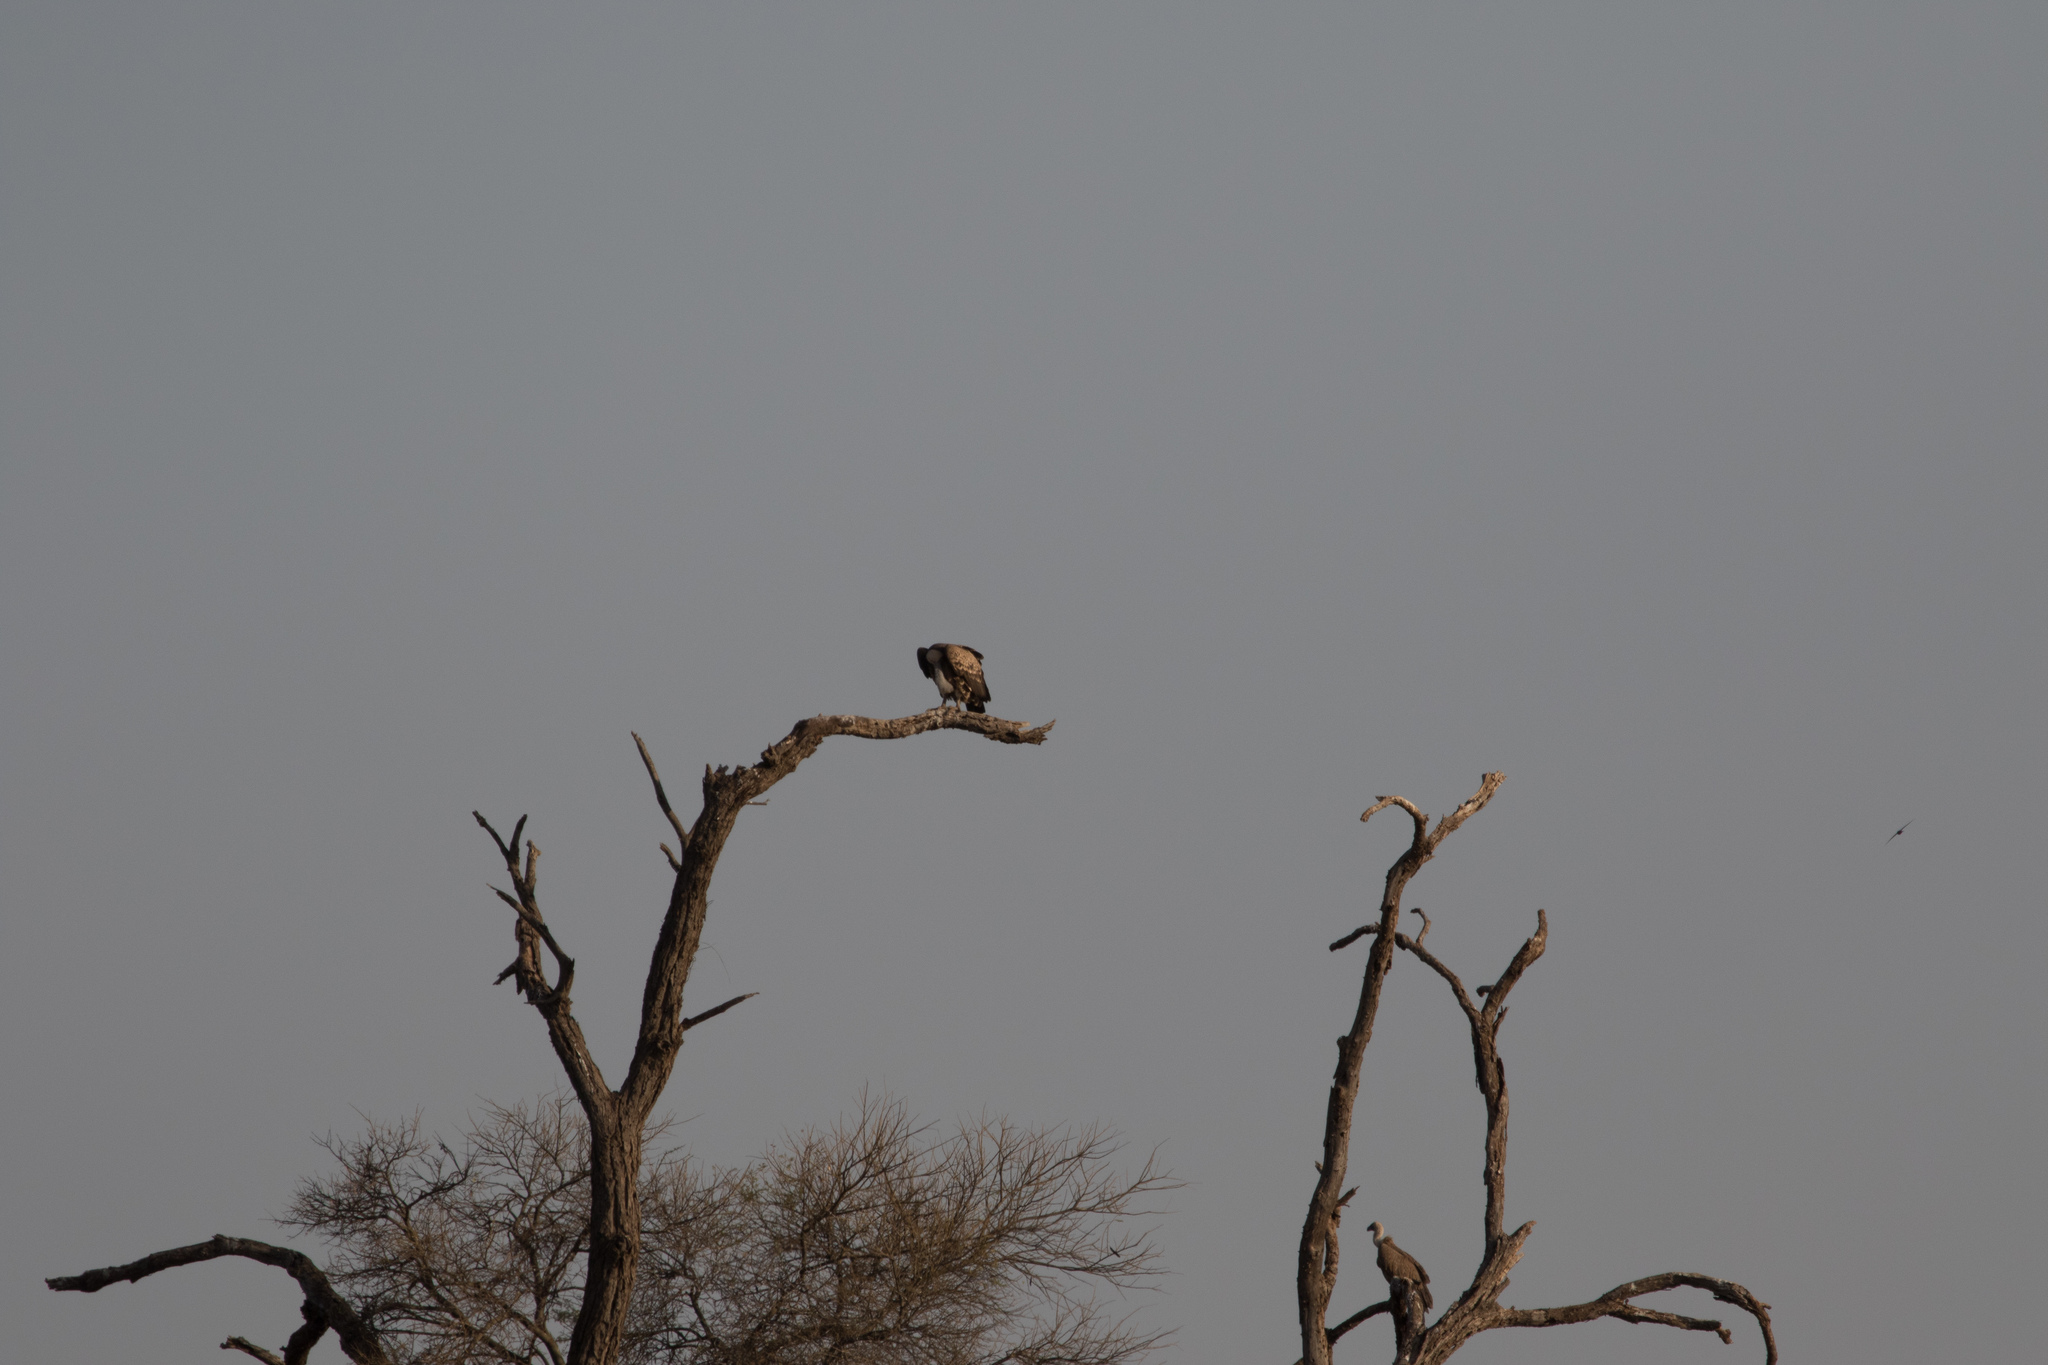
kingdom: Animalia
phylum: Chordata
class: Aves
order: Accipitriformes
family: Accipitridae
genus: Gyps
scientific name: Gyps rueppellii
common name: Rüppell's vulture
